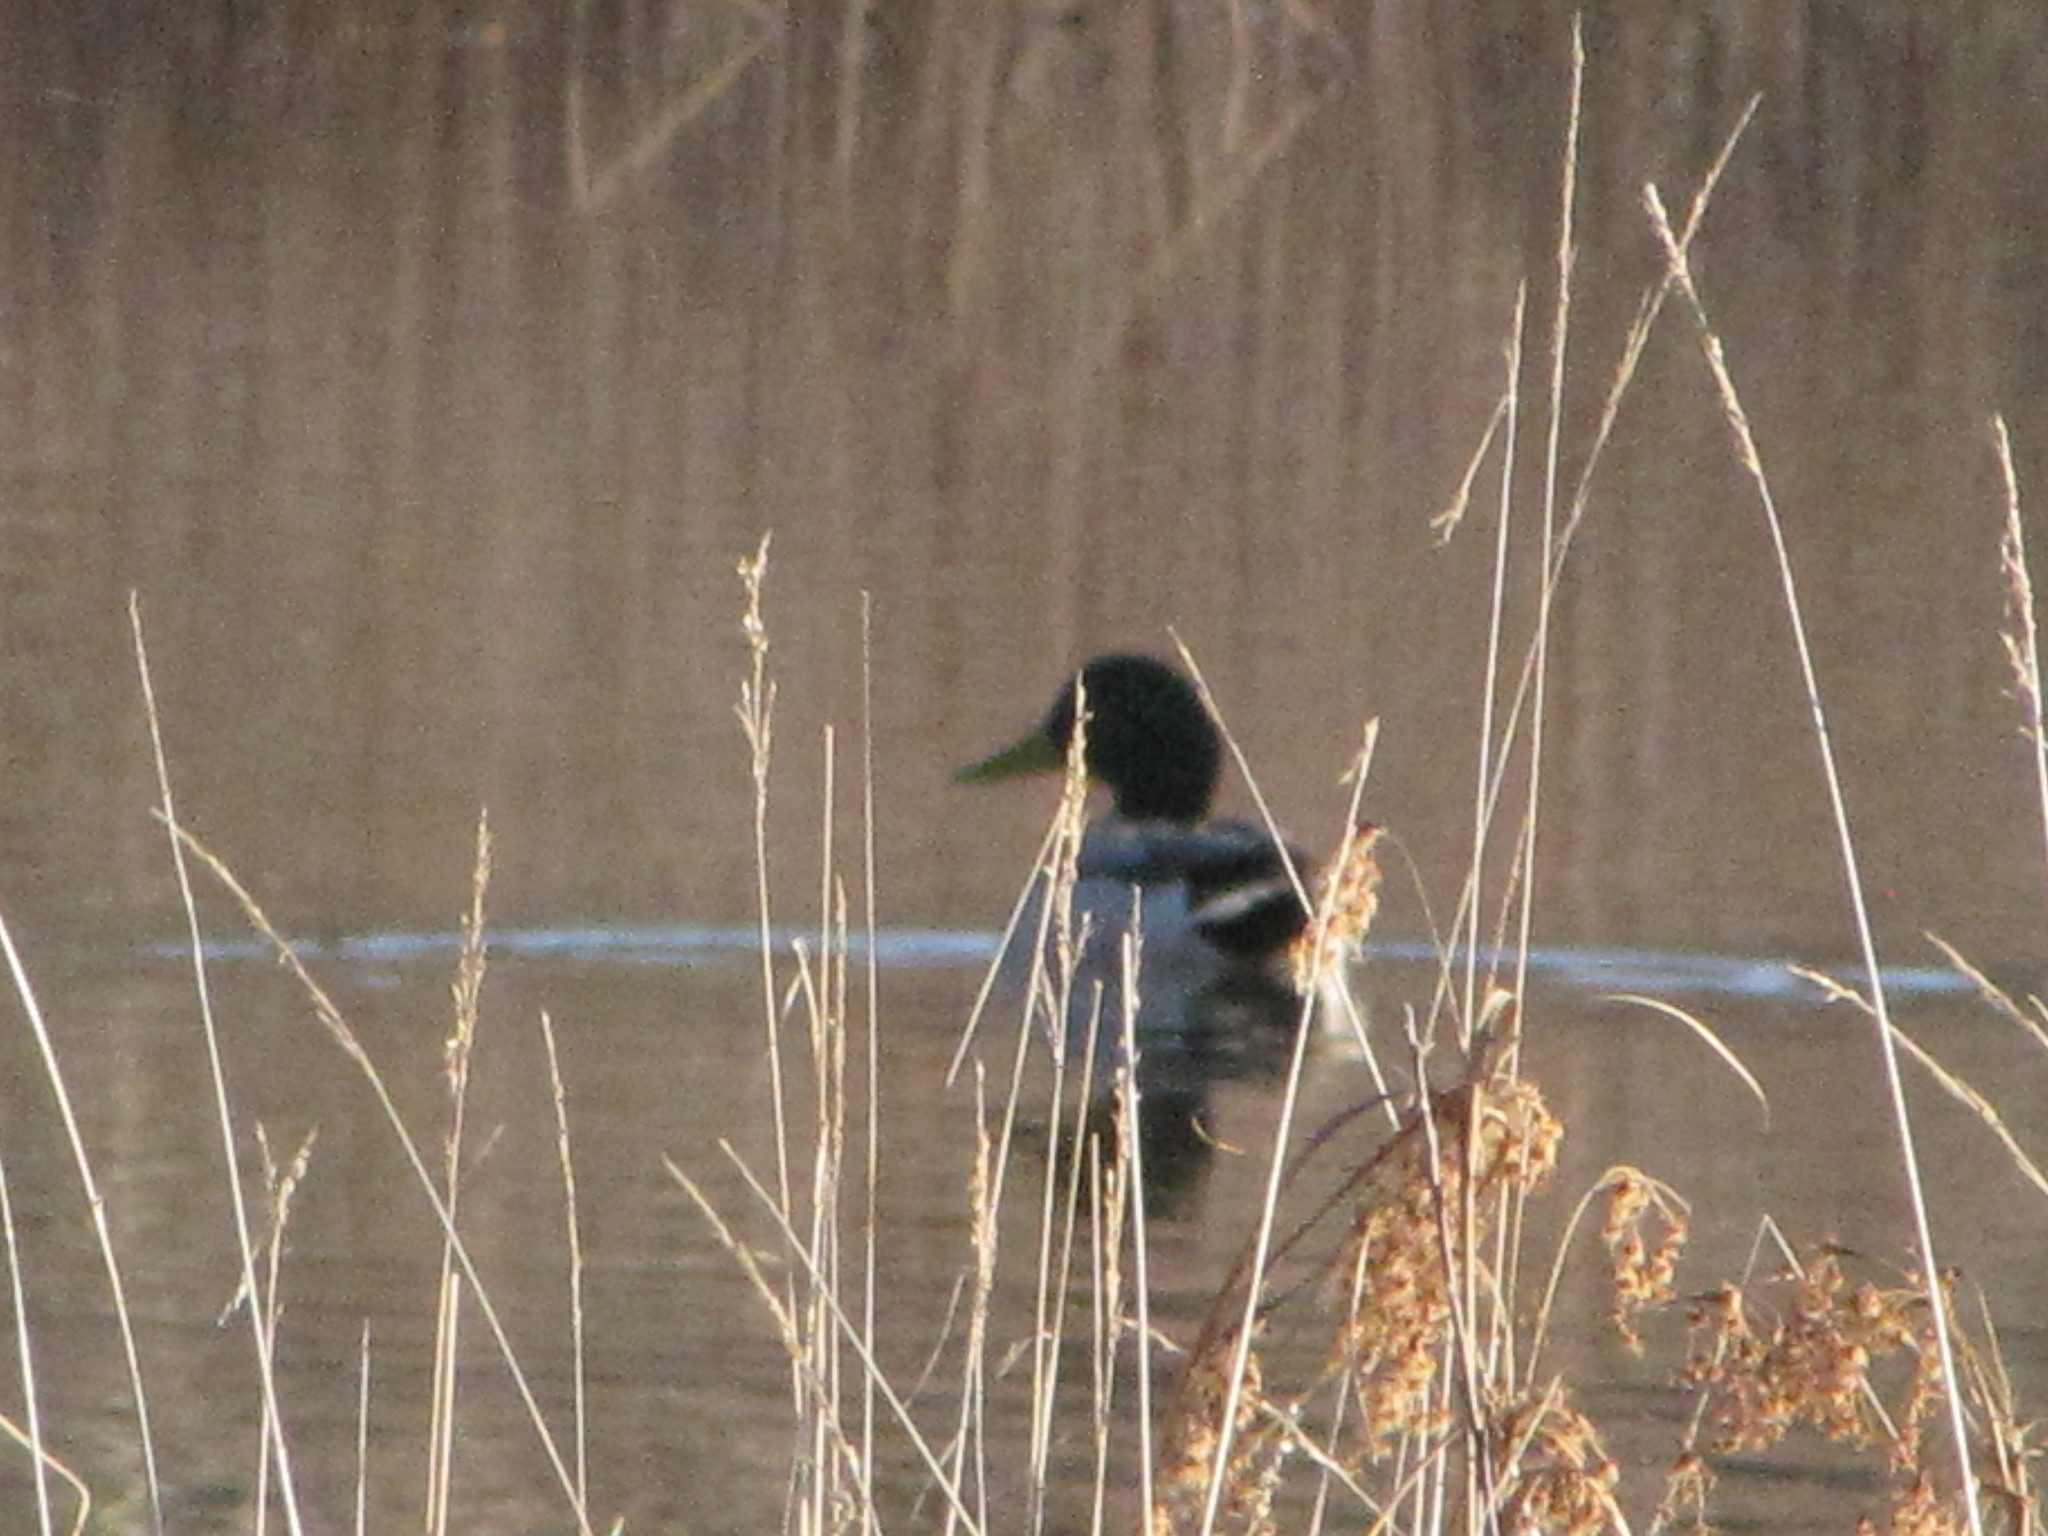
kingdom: Animalia
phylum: Chordata
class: Aves
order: Anseriformes
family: Anatidae
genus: Anas
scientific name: Anas platyrhynchos
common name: Mallard
